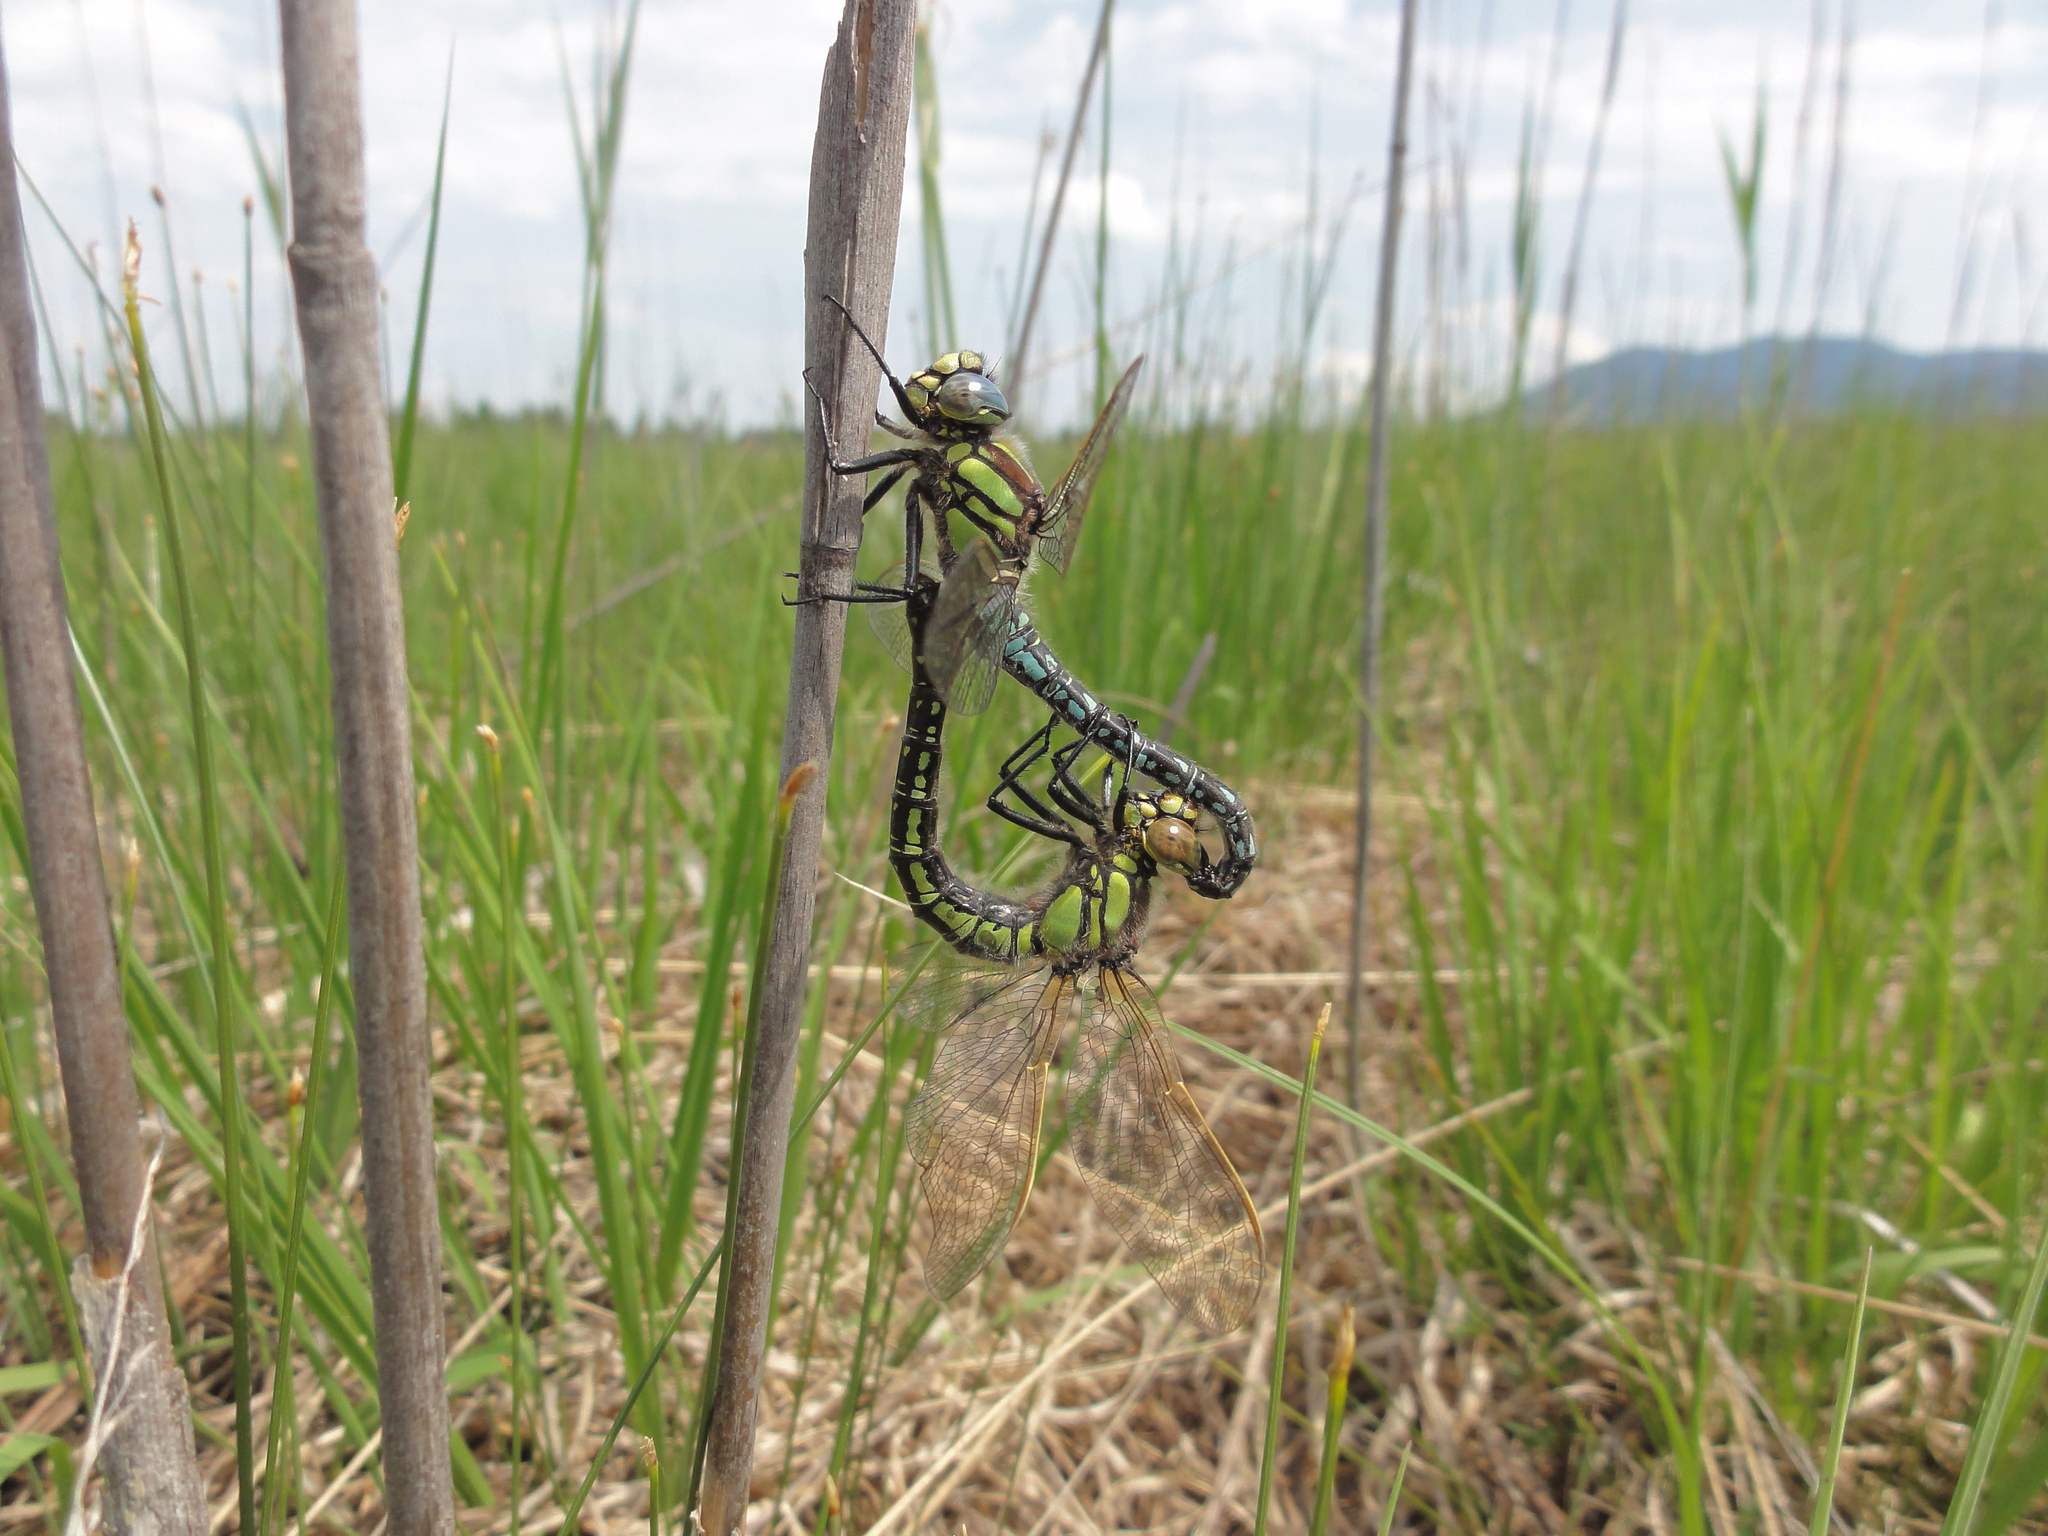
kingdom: Animalia
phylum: Arthropoda
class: Insecta
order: Odonata
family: Aeshnidae
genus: Brachytron
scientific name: Brachytron pratense
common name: Hairy hawker
